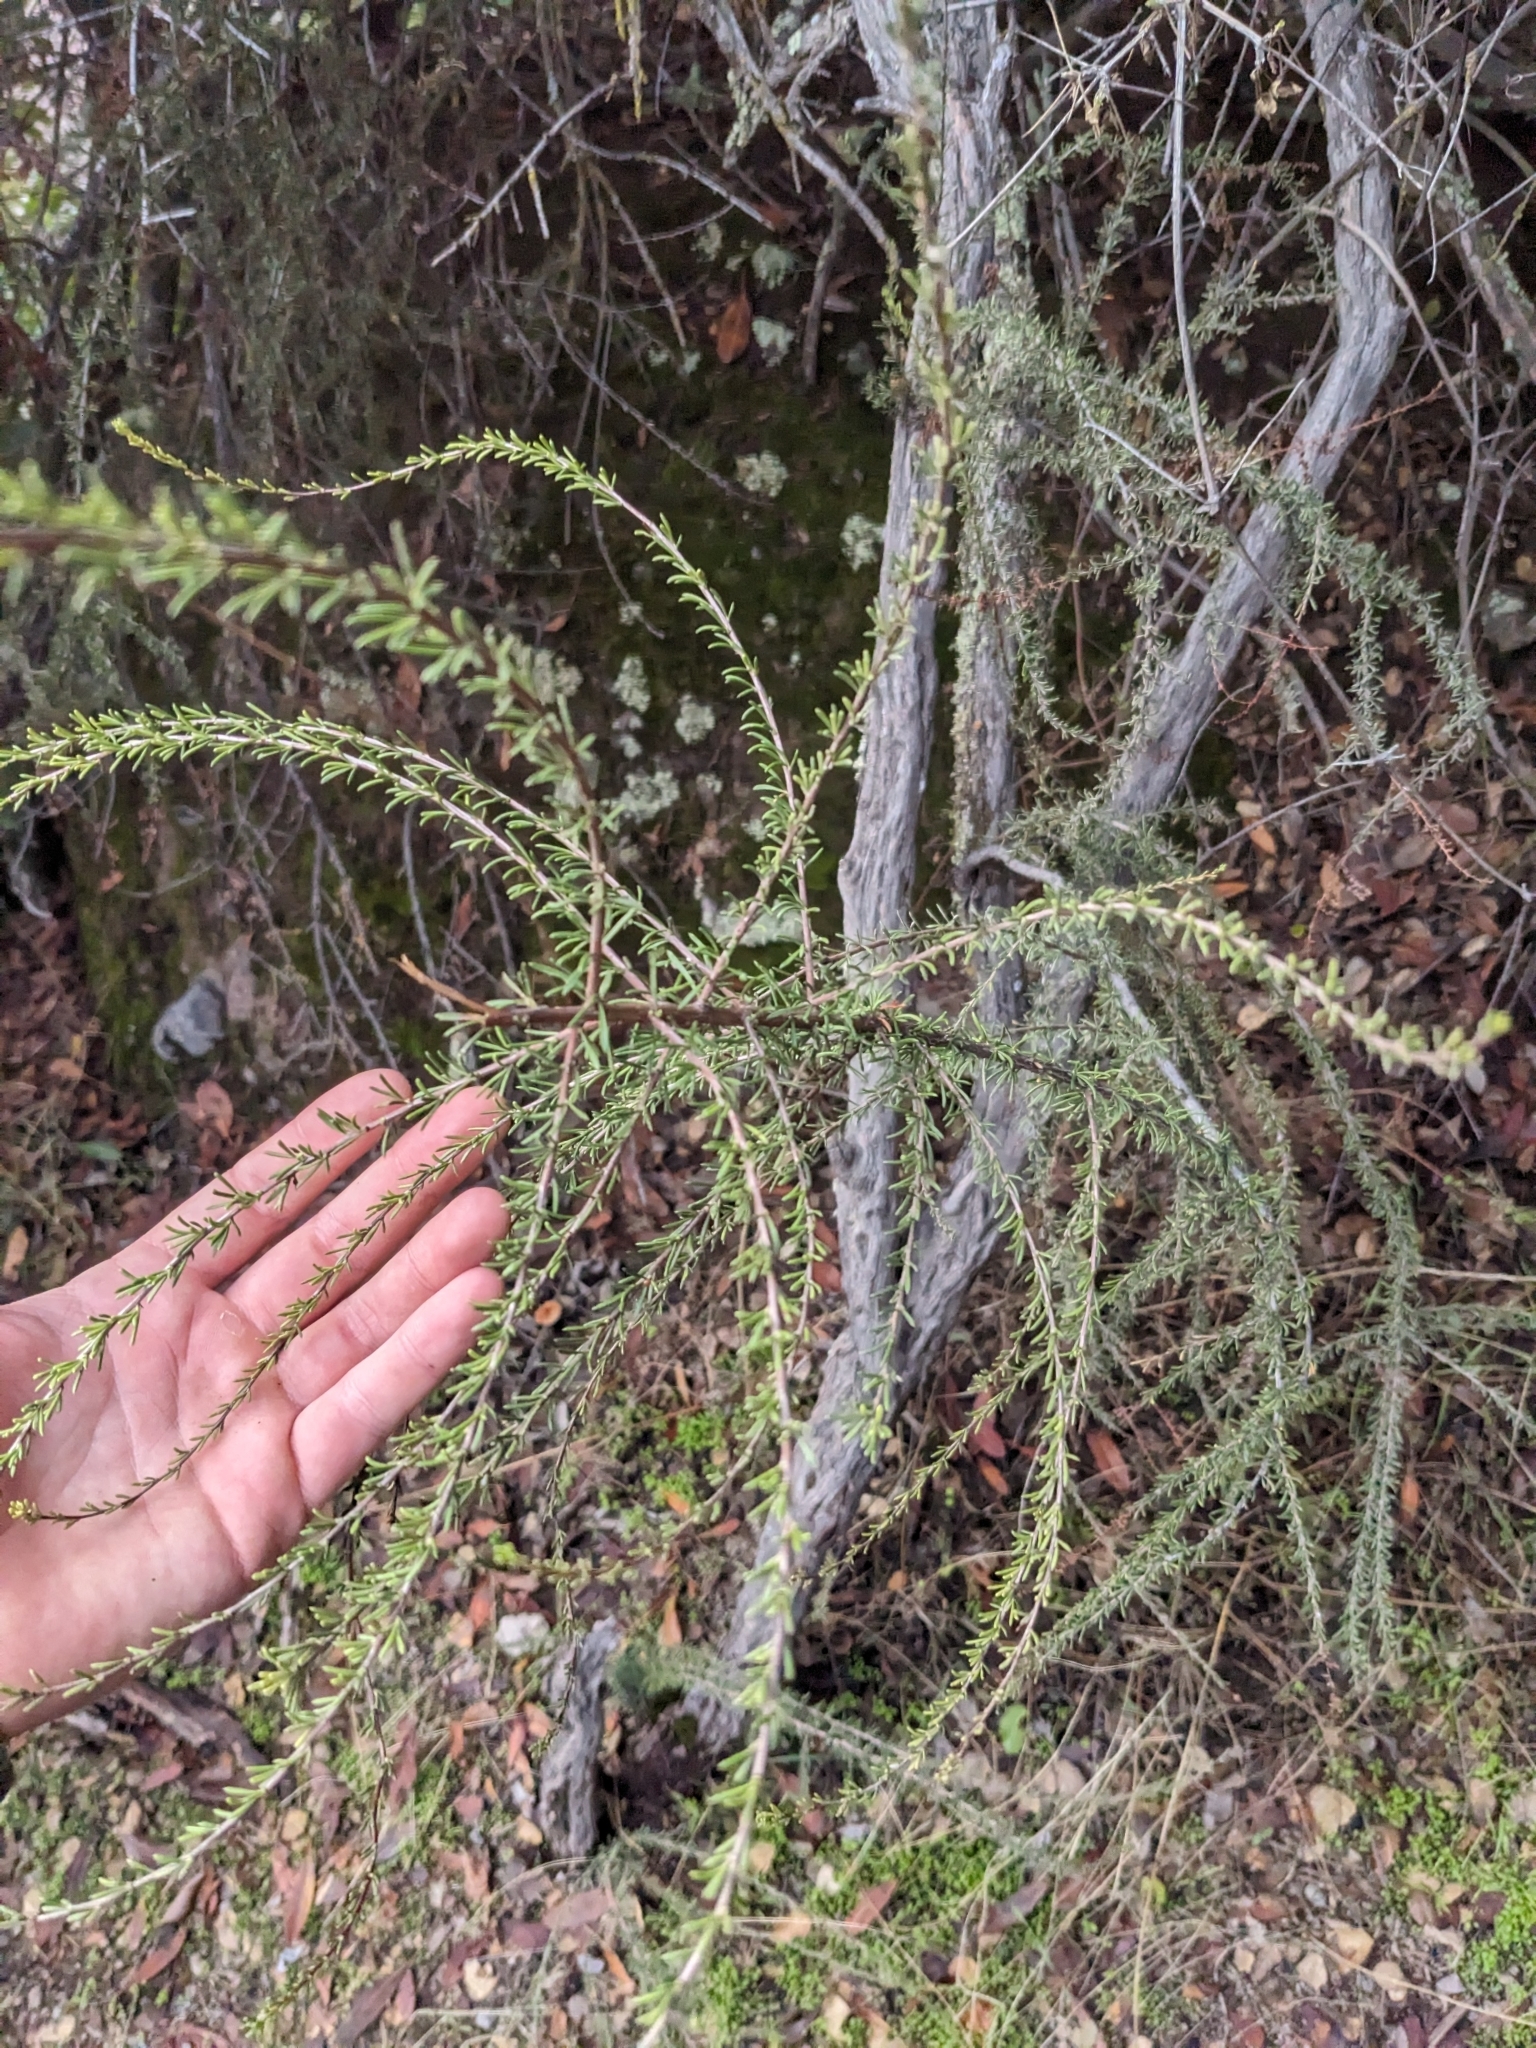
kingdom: Plantae
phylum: Tracheophyta
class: Magnoliopsida
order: Rosales
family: Rosaceae
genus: Adenostoma
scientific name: Adenostoma fasciculatum
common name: Chamise
